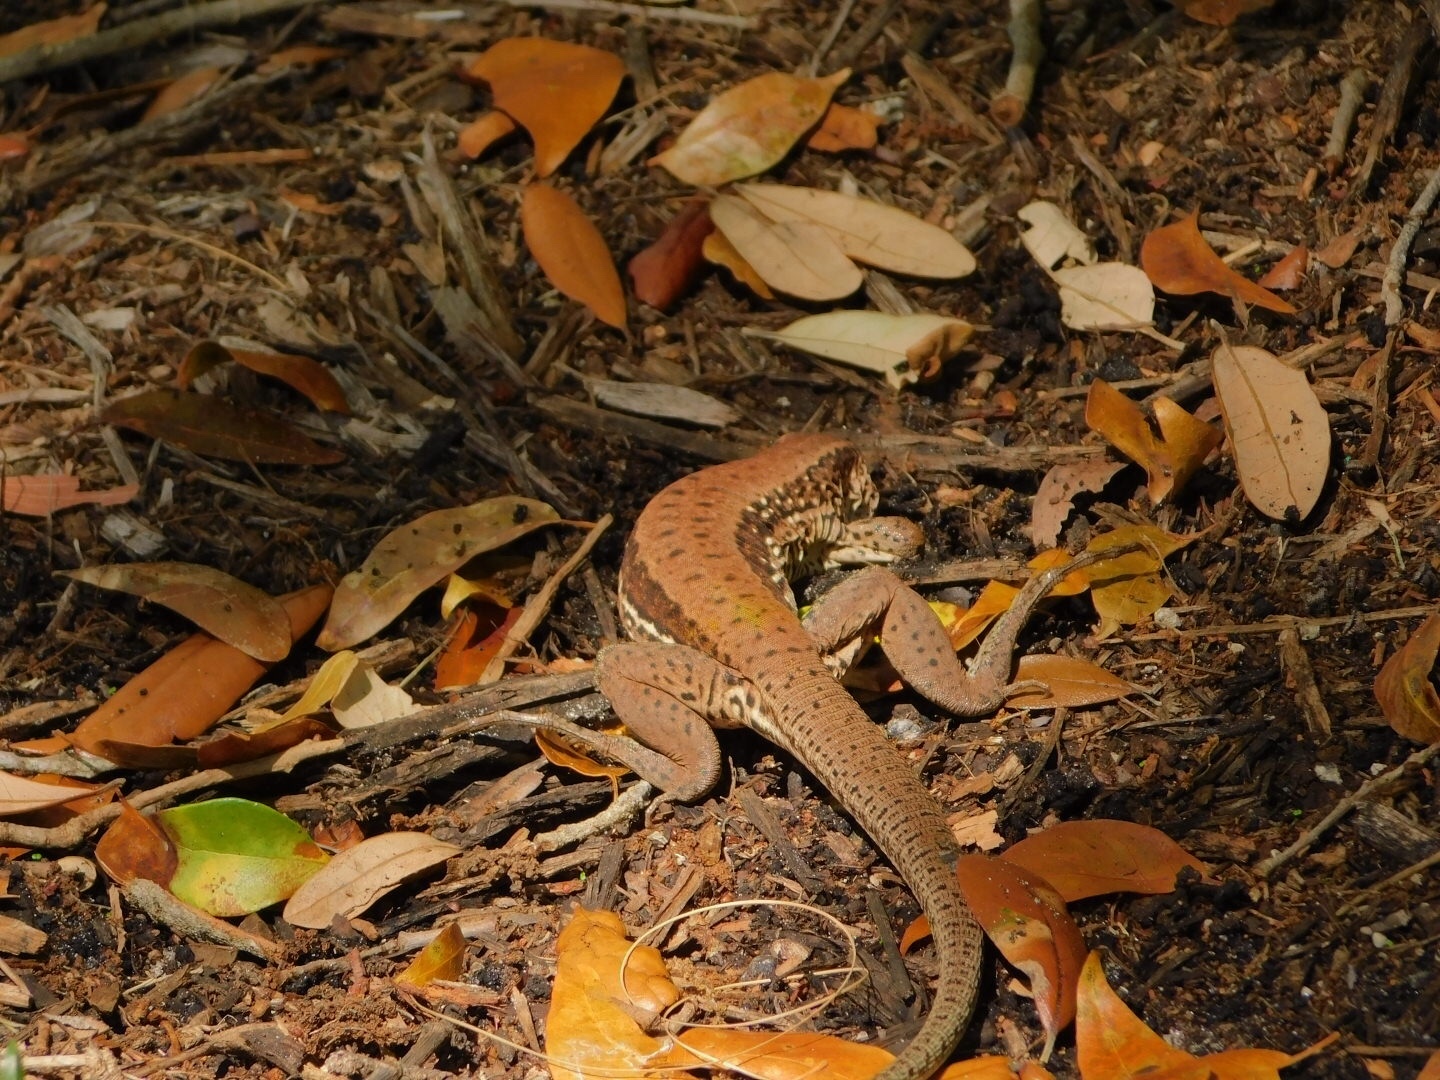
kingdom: Animalia
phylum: Chordata
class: Squamata
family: Teiidae
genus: Ameiva
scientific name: Ameiva ameiva
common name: Giant ameiva
